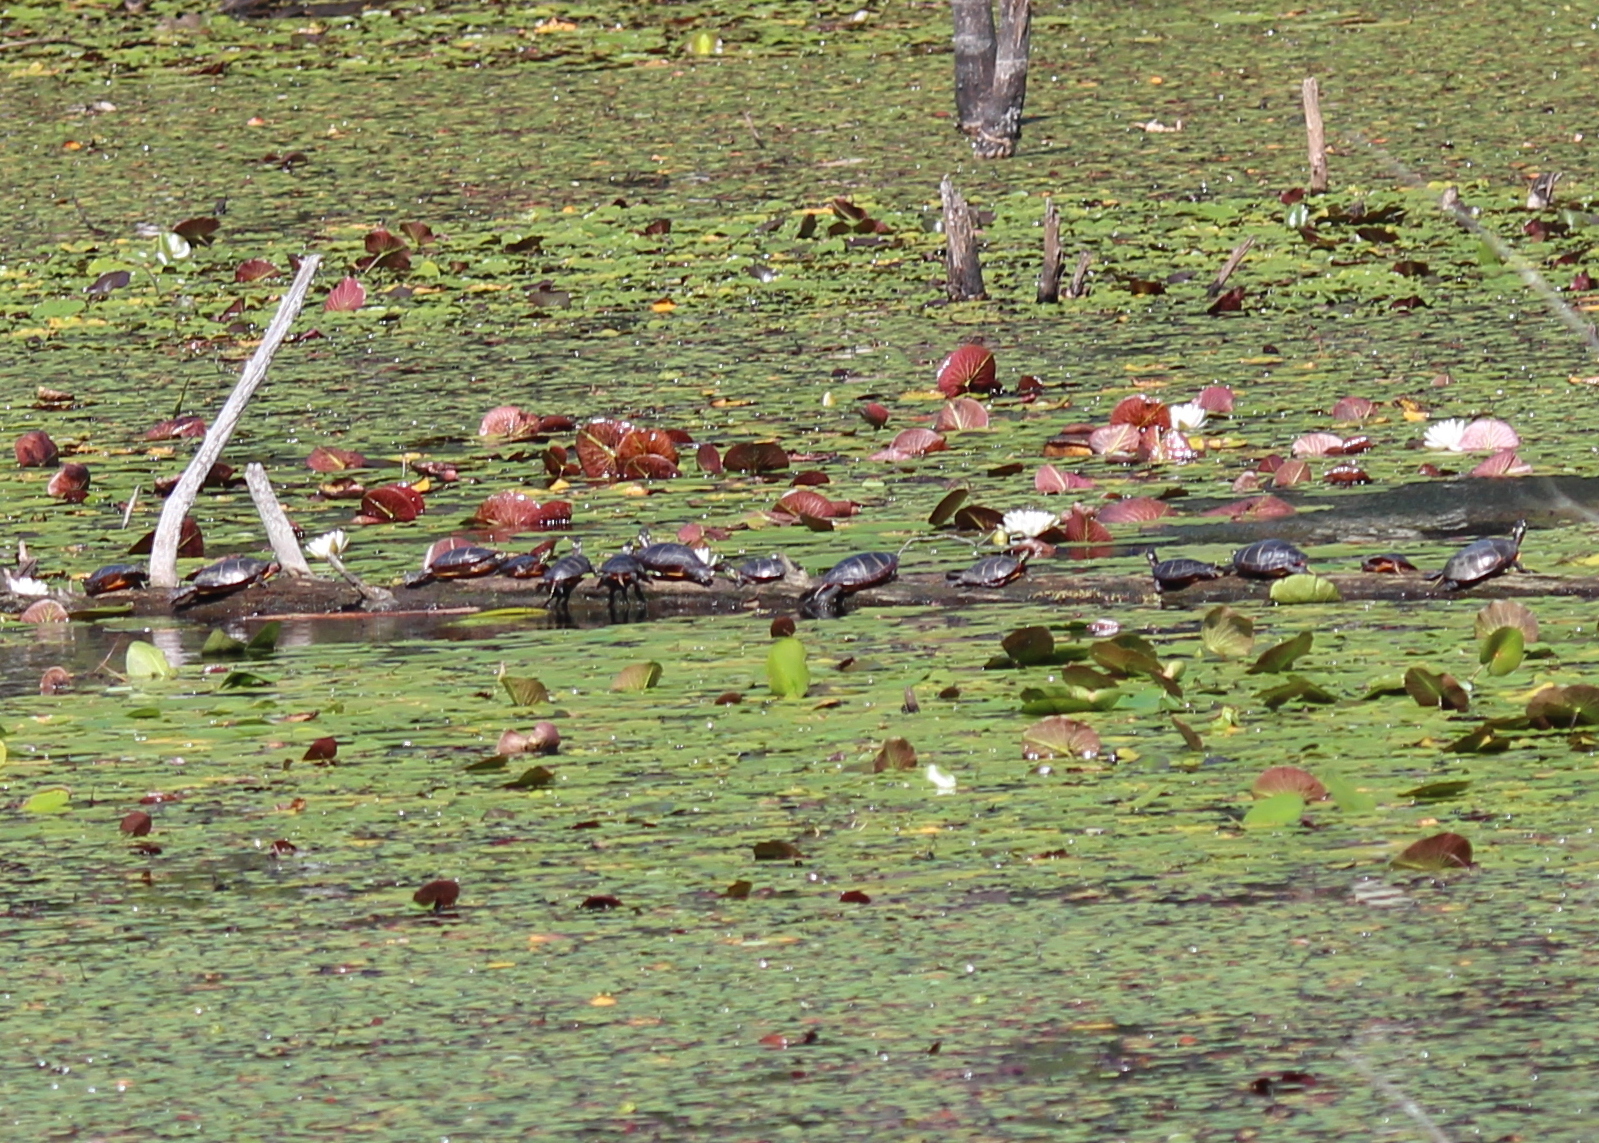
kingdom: Animalia
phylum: Chordata
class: Testudines
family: Emydidae
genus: Chrysemys
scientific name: Chrysemys picta
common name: Painted turtle
